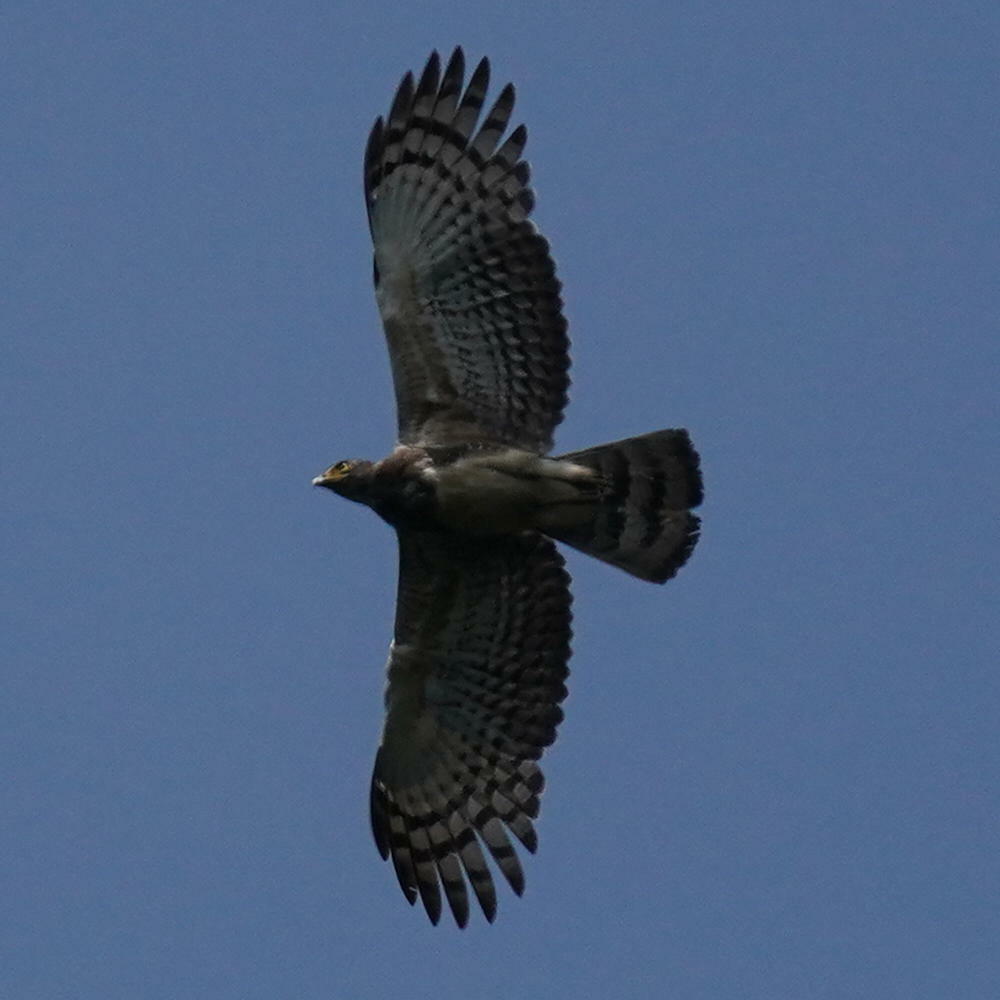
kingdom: Animalia
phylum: Chordata
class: Aves
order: Accipitriformes
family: Accipitridae
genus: Pernis
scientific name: Pernis ptilorhynchus
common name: Crested honey buzzard
